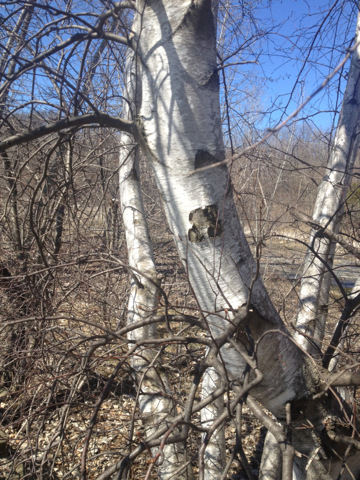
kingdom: Plantae
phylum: Tracheophyta
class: Magnoliopsida
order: Fagales
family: Betulaceae
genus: Betula
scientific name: Betula populifolia
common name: Fire birch
